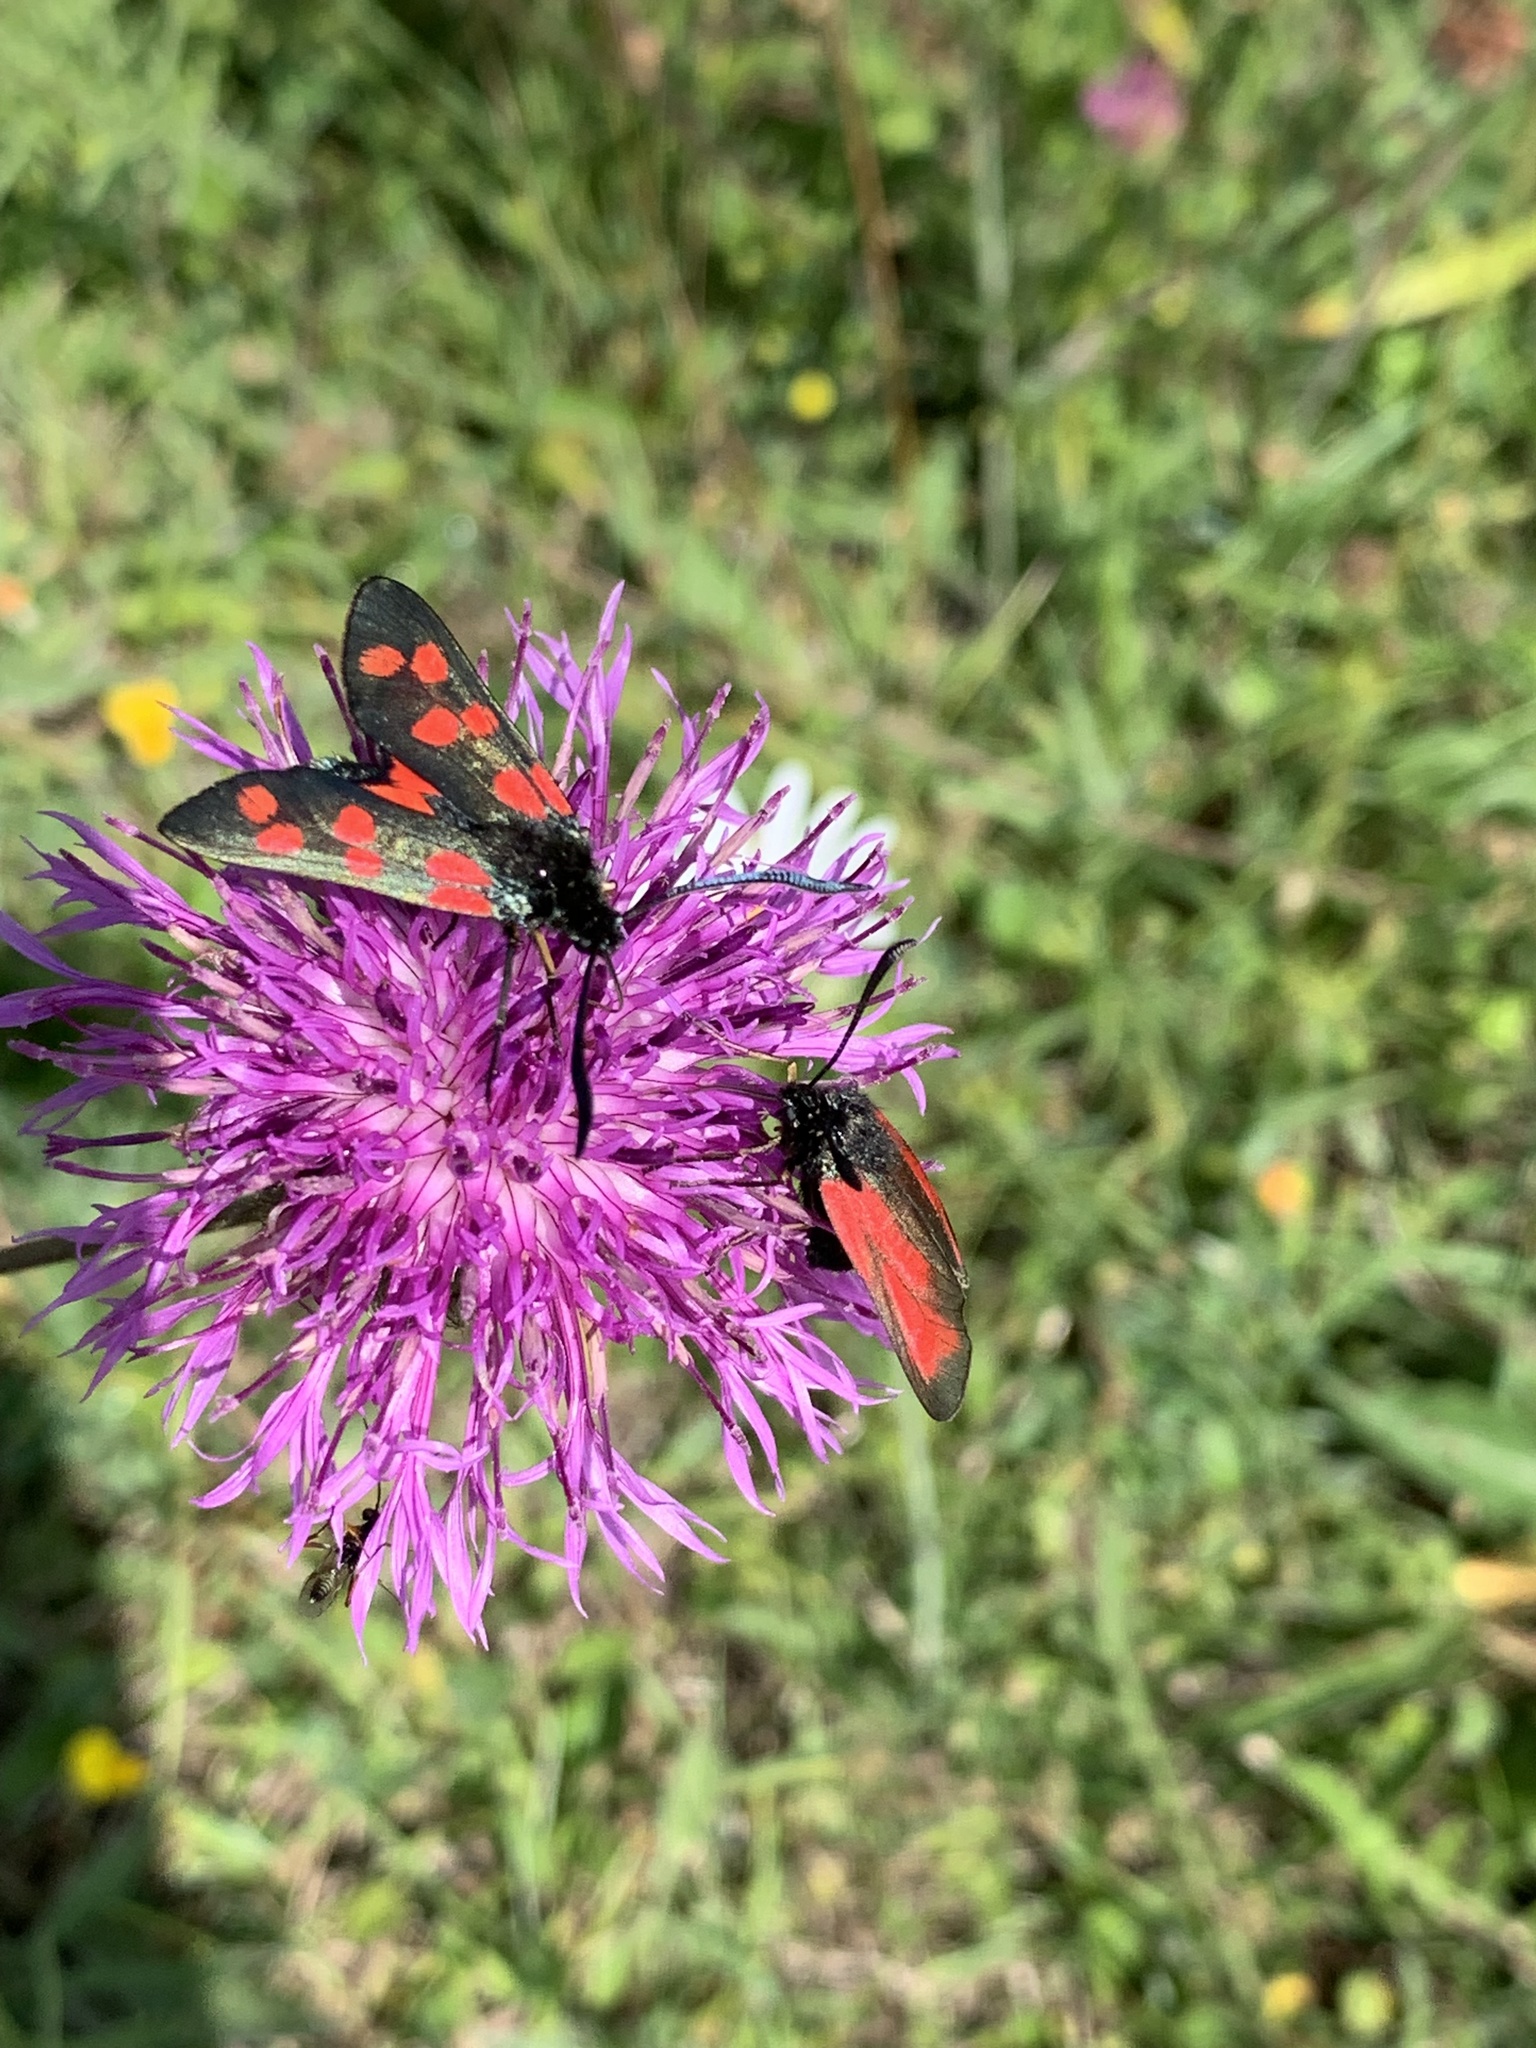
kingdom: Animalia
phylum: Arthropoda
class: Insecta
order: Lepidoptera
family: Zygaenidae
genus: Zygaena
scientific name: Zygaena filipendulae
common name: Six-spot burnet
